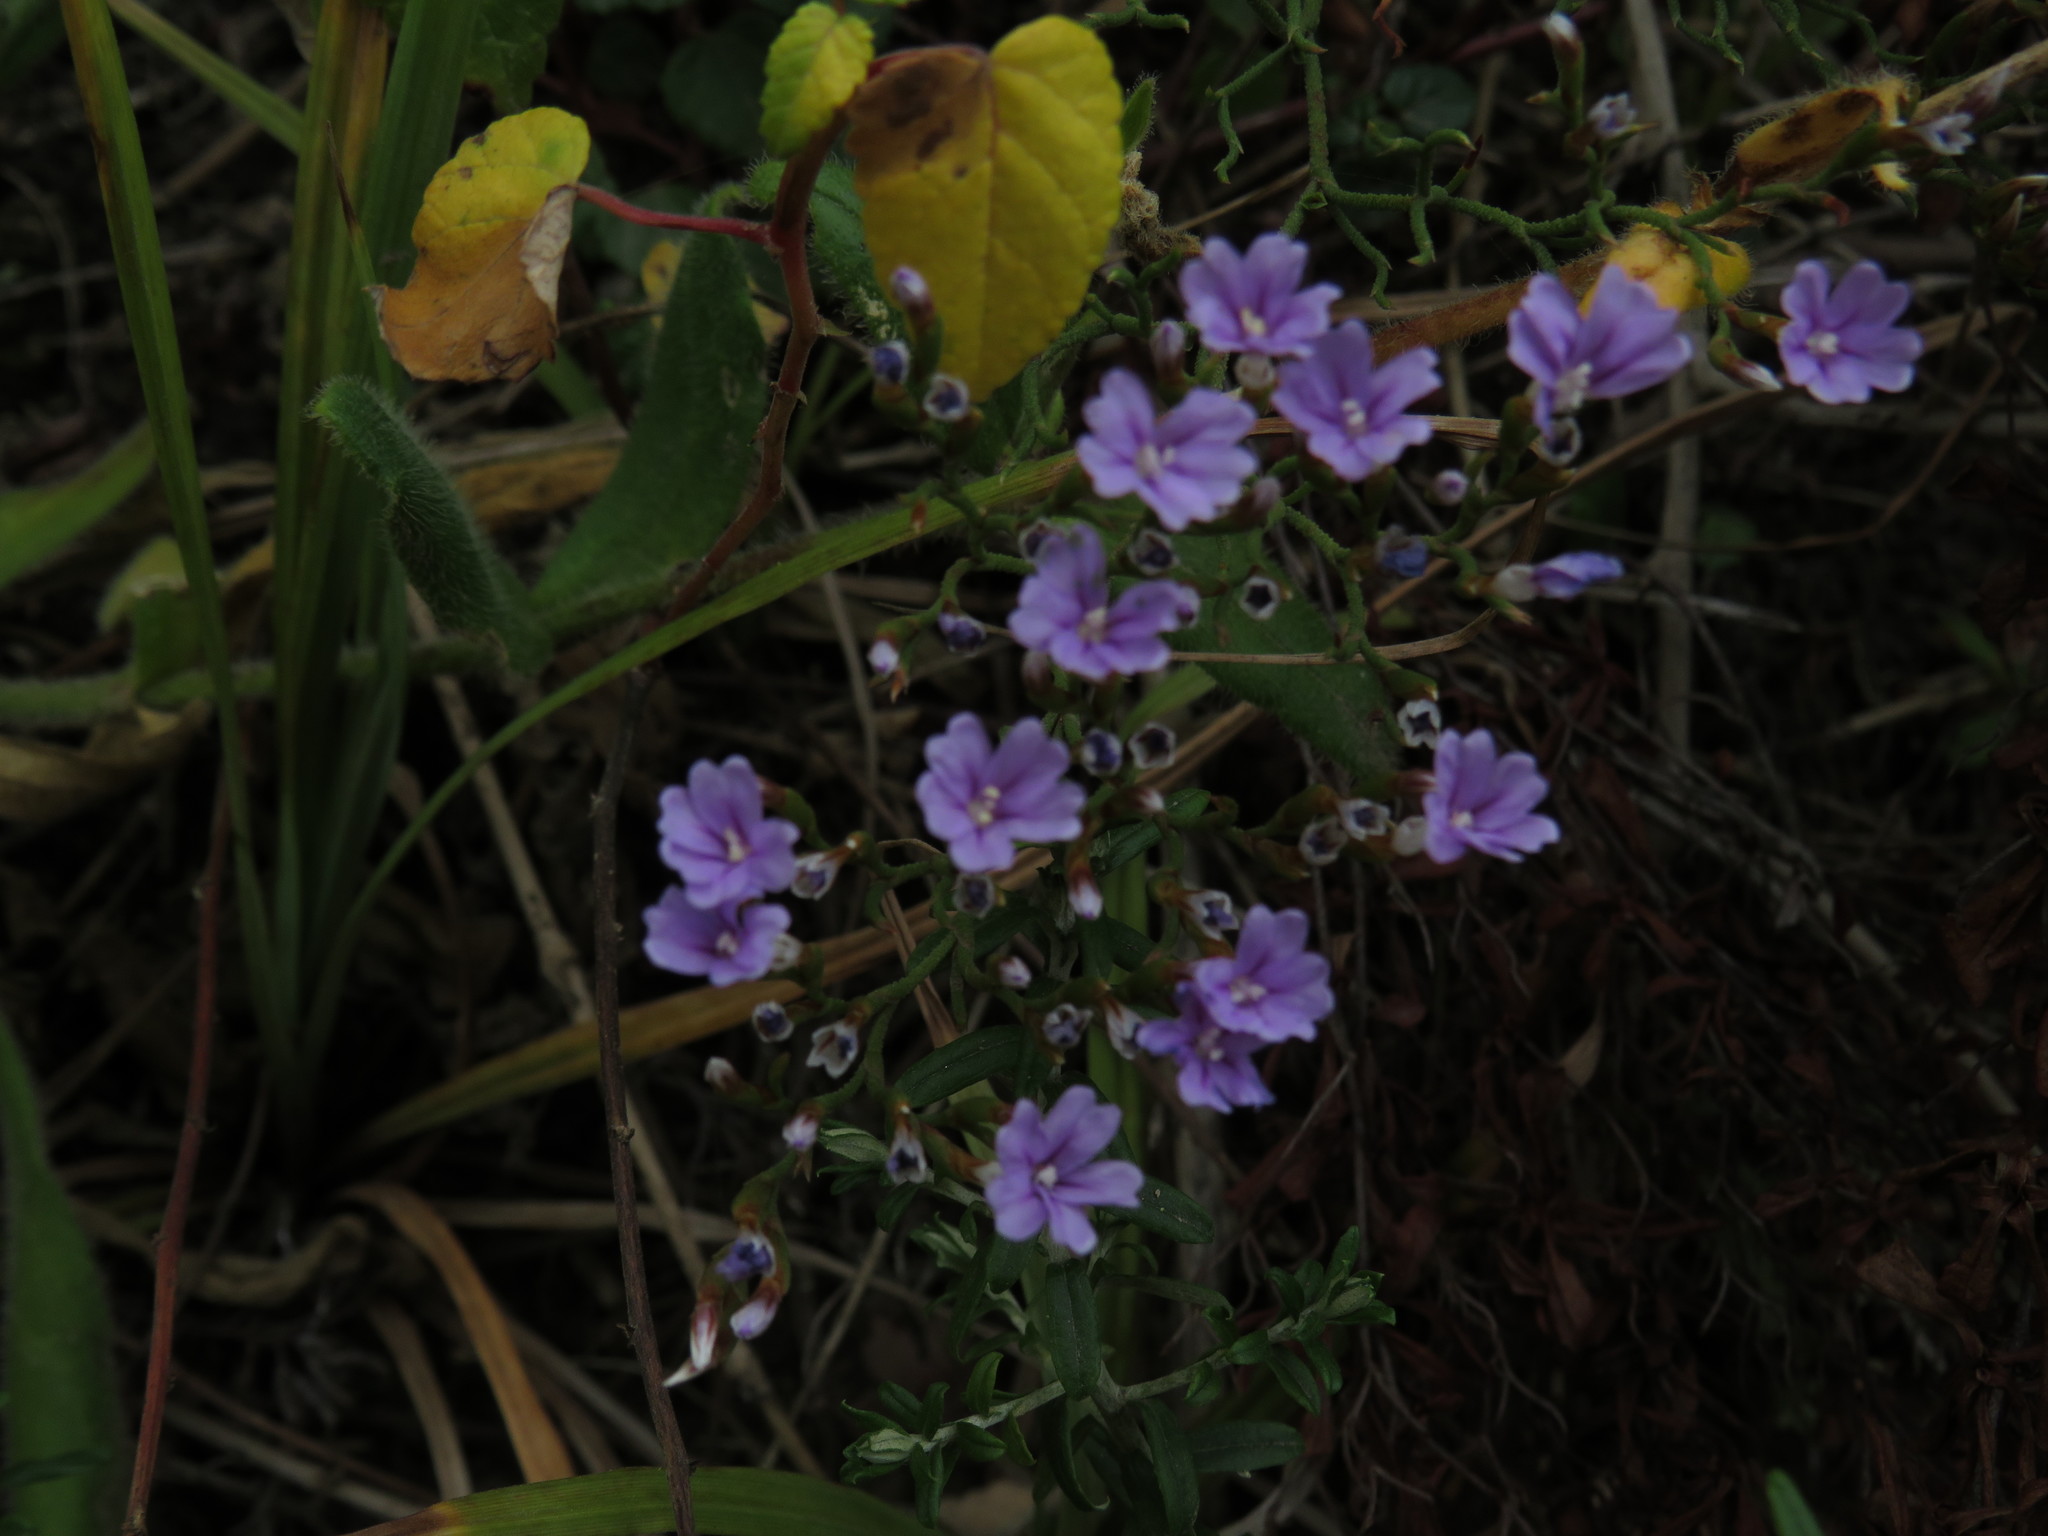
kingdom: Plantae
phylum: Tracheophyta
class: Magnoliopsida
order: Caryophyllales
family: Plumbaginaceae
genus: Limonium
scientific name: Limonium scabrum
